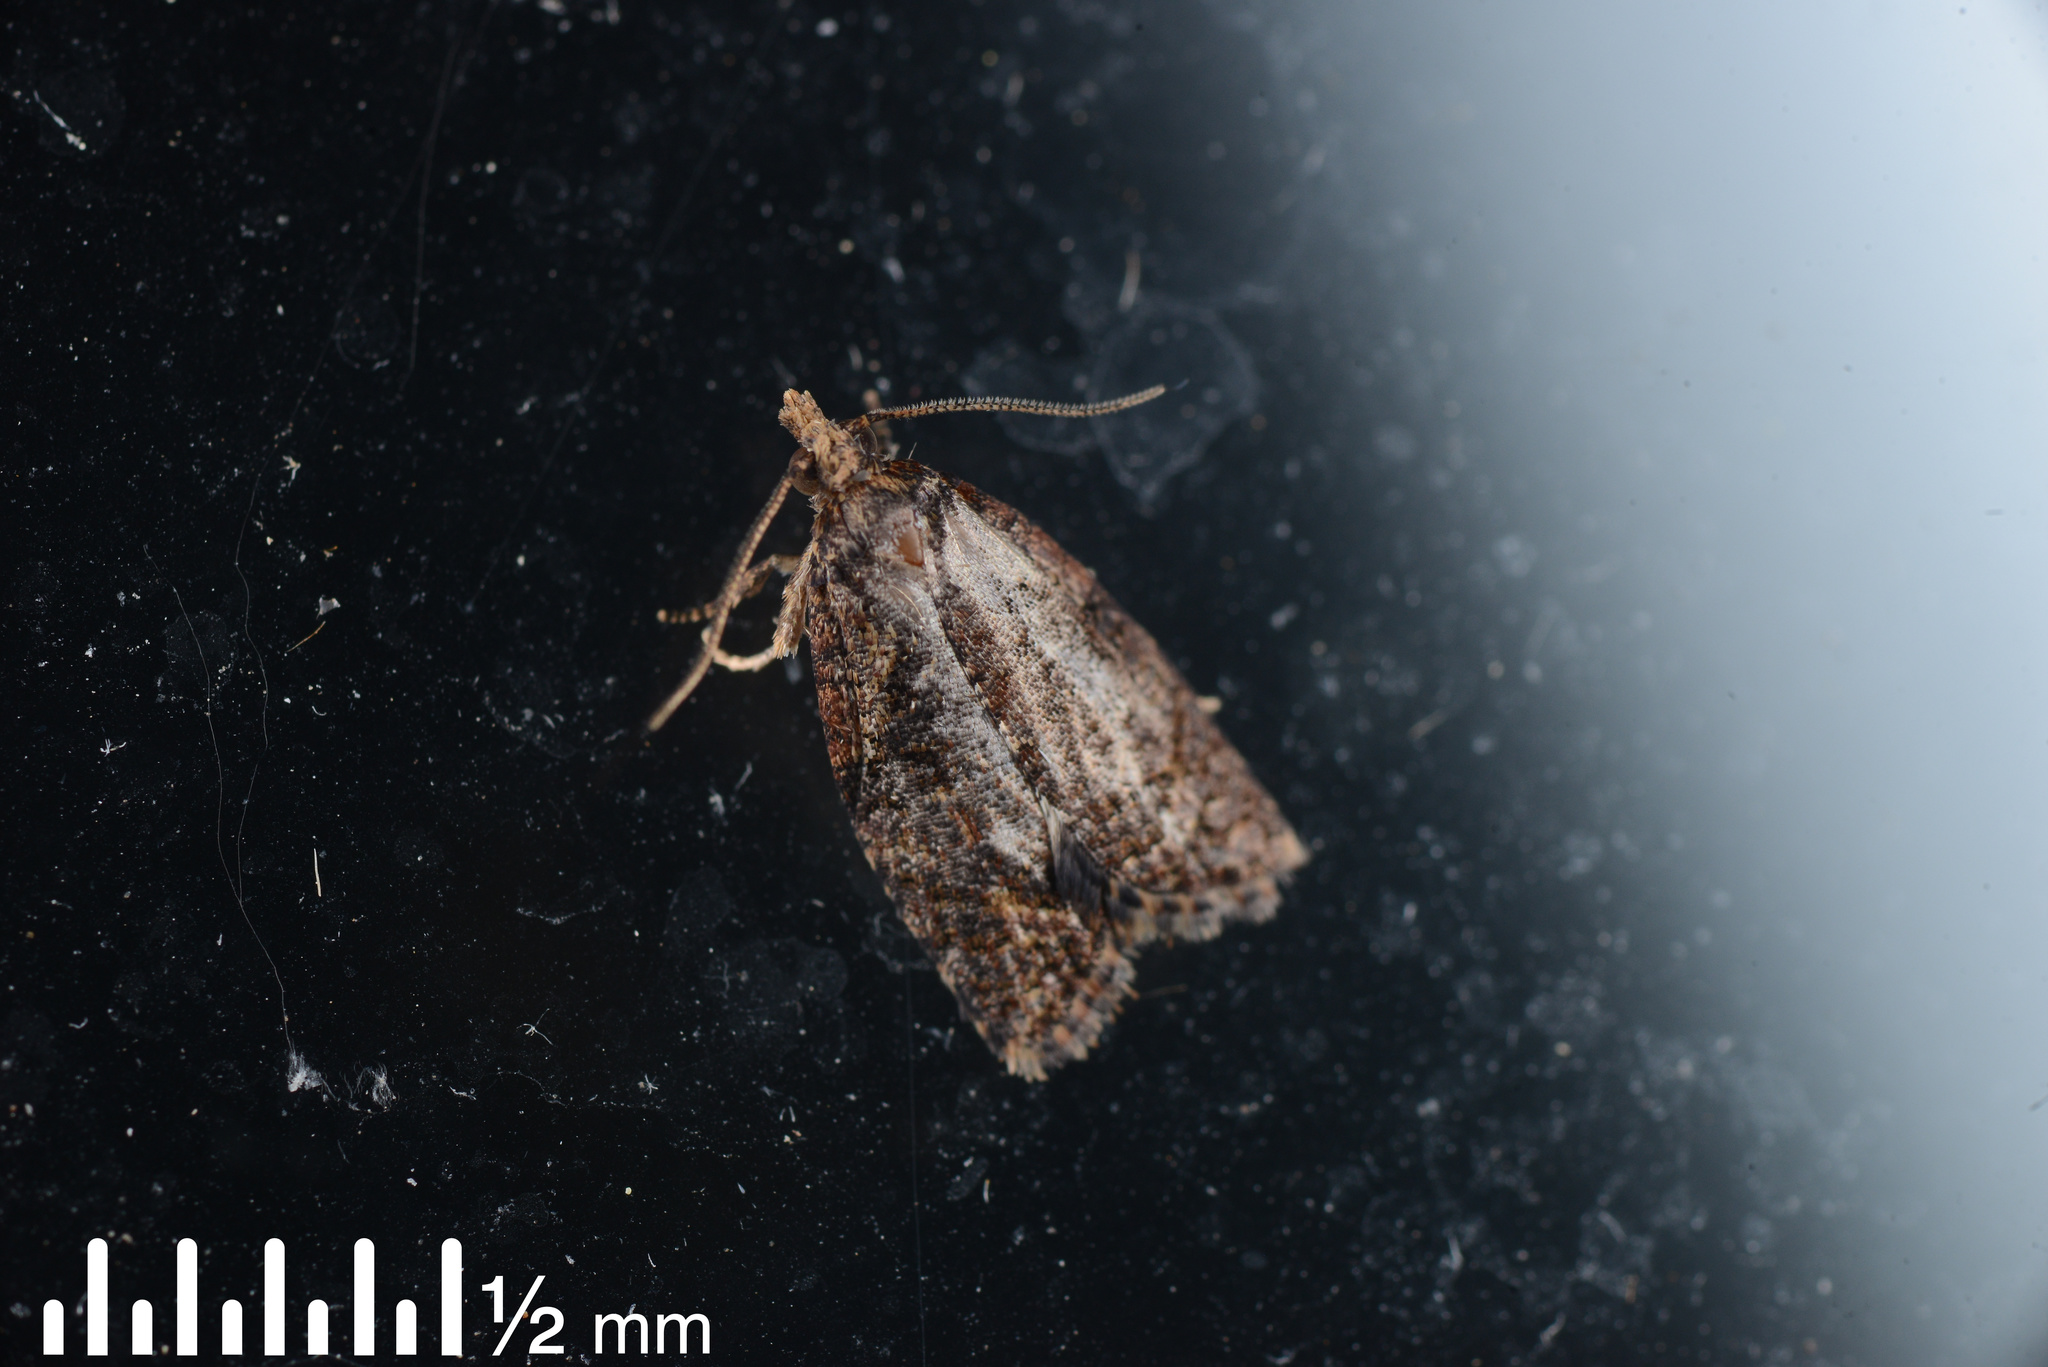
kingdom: Animalia
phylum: Arthropoda
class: Insecta
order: Lepidoptera
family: Tortricidae
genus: Capua
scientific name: Capua intractana
